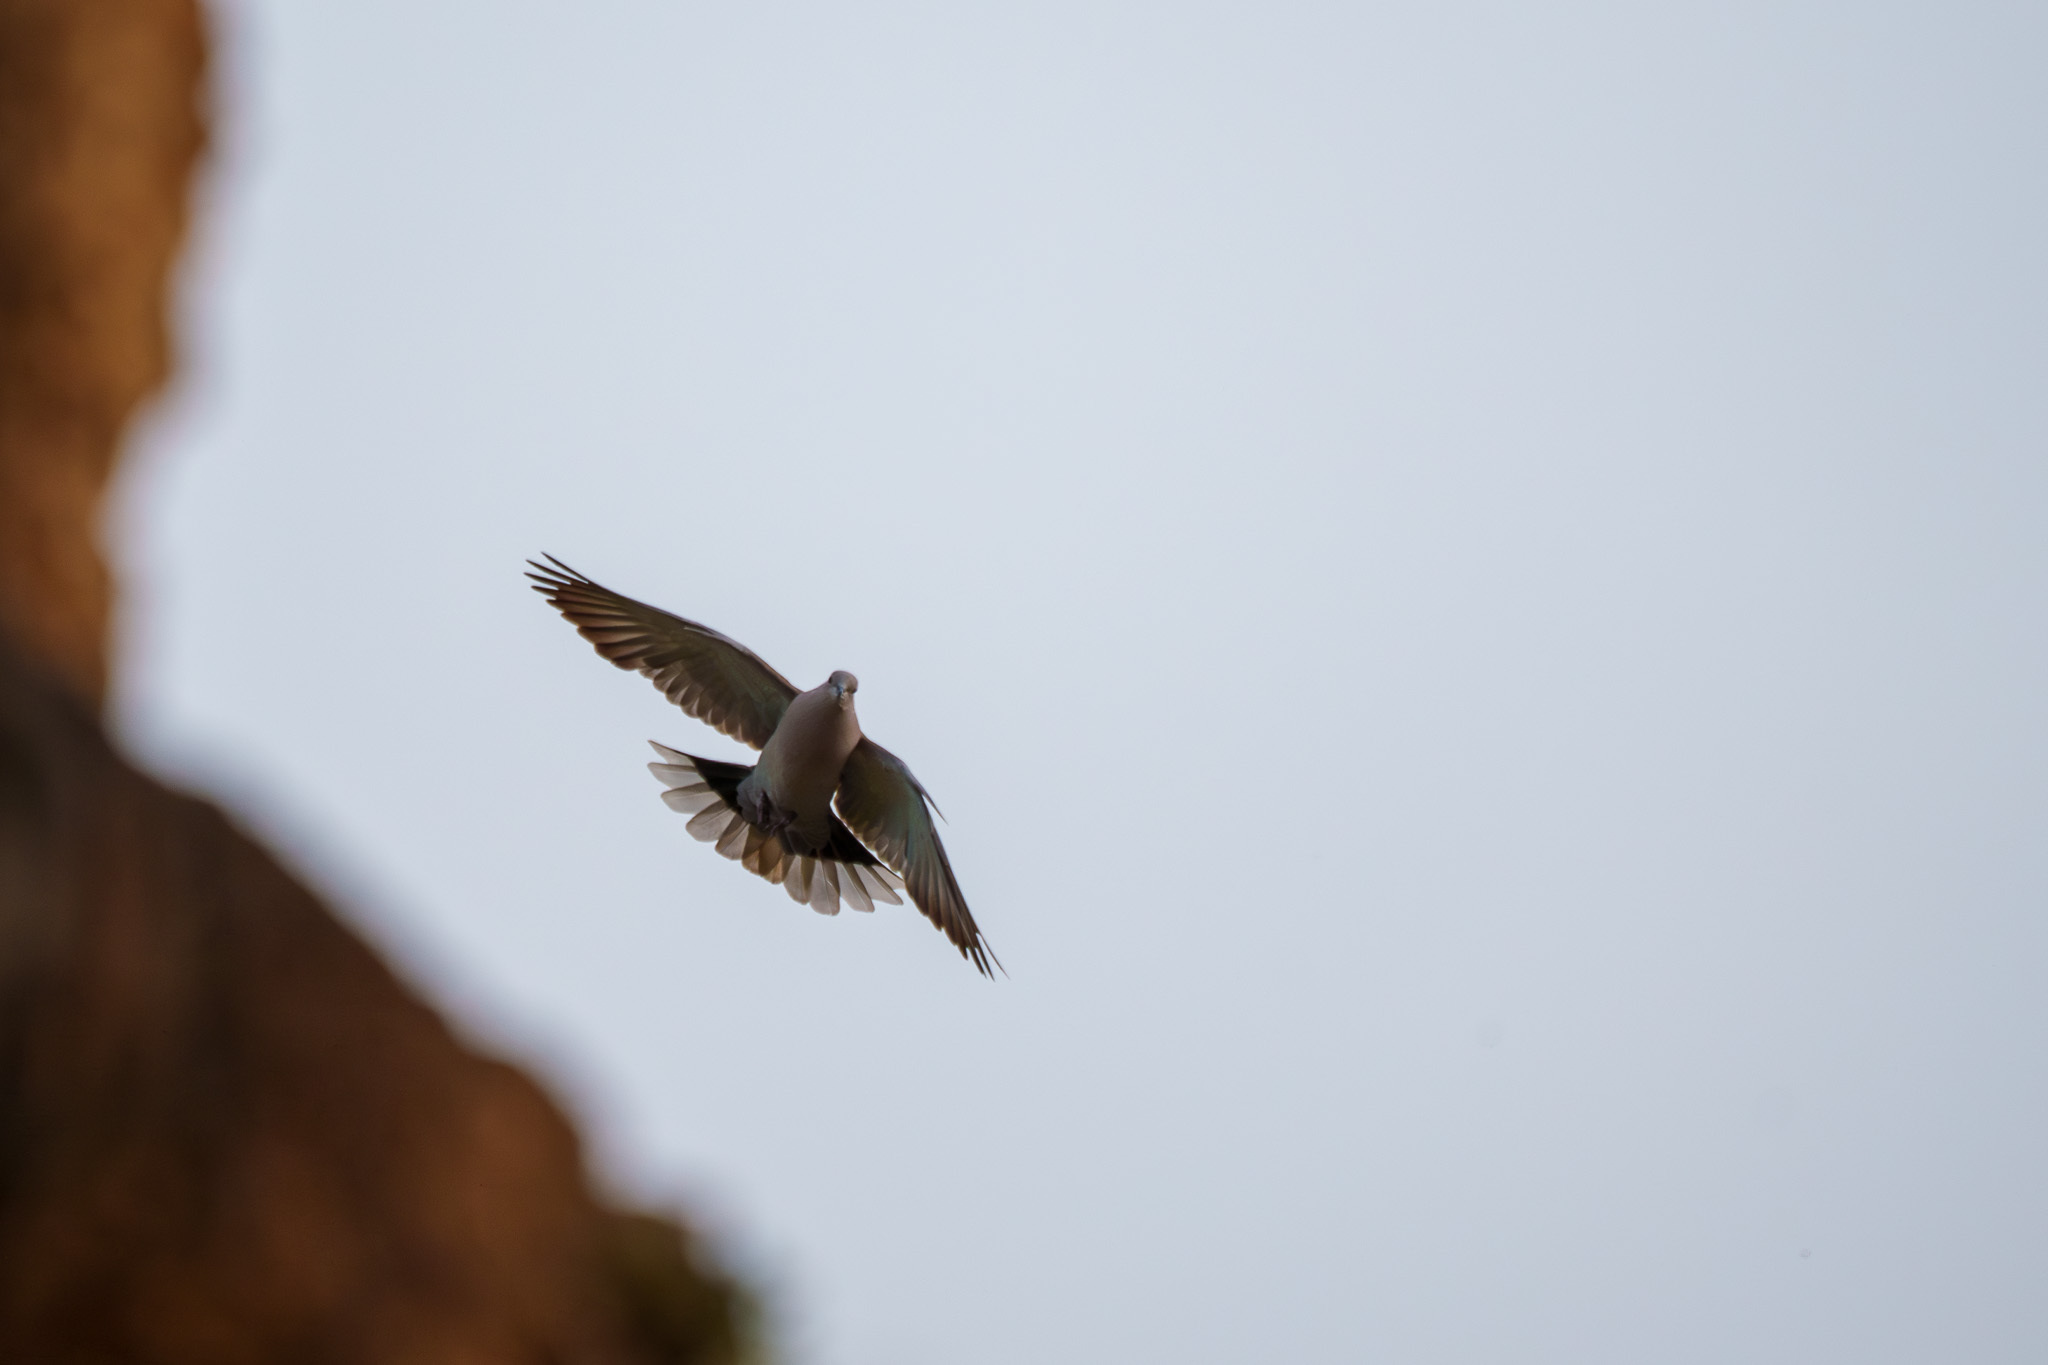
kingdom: Animalia
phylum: Chordata
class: Aves
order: Columbiformes
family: Columbidae
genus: Streptopelia
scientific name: Streptopelia decaocto
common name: Eurasian collared dove
